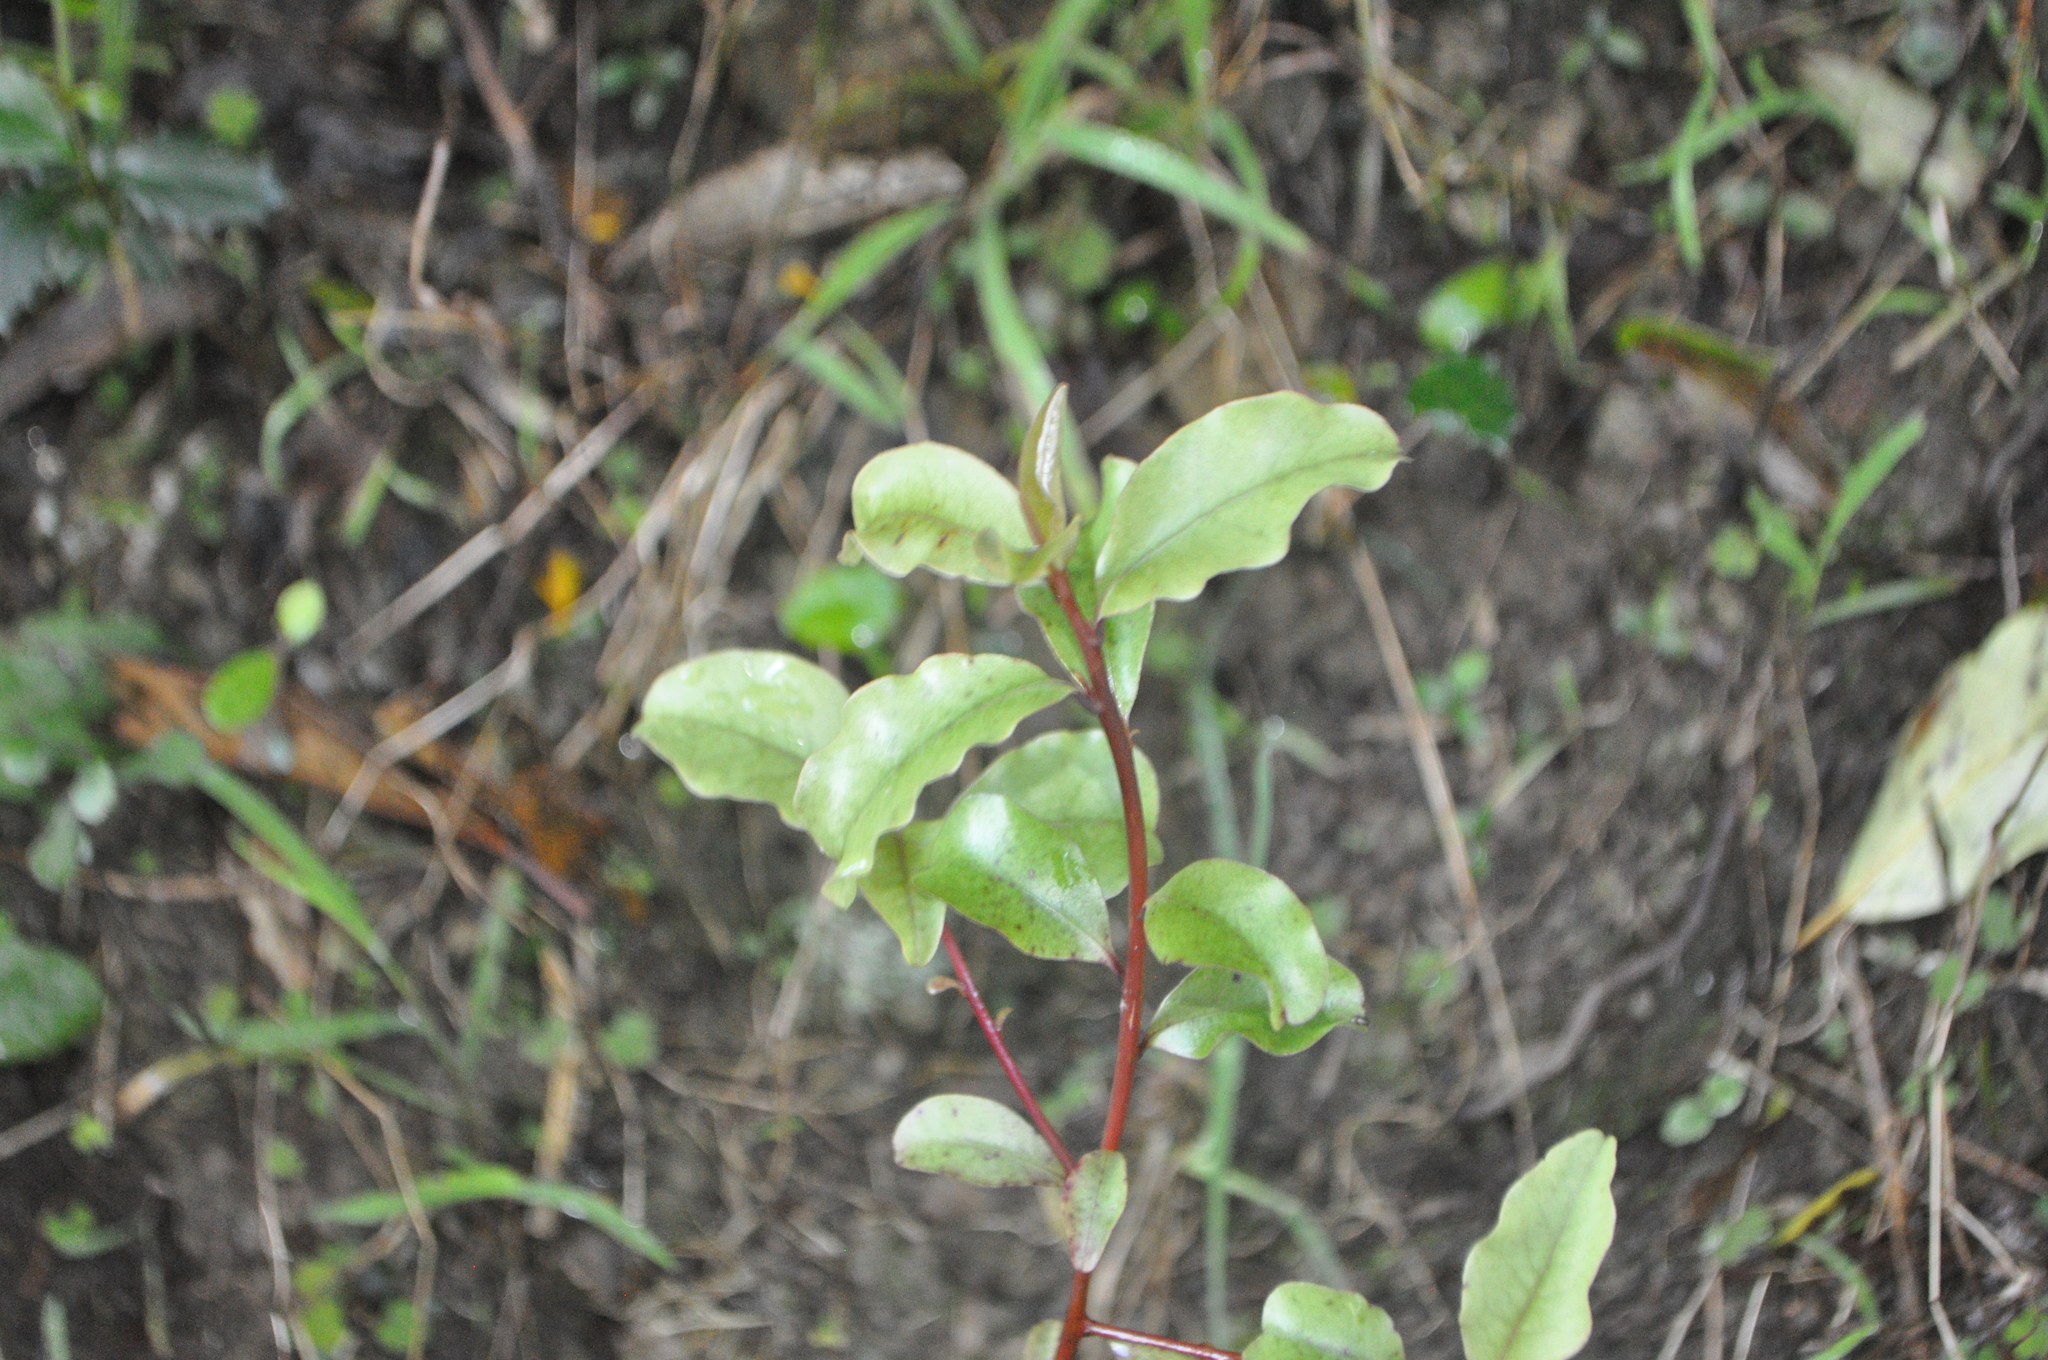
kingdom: Plantae
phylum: Tracheophyta
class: Magnoliopsida
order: Ericales
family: Primulaceae
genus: Myrsine
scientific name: Myrsine australis
